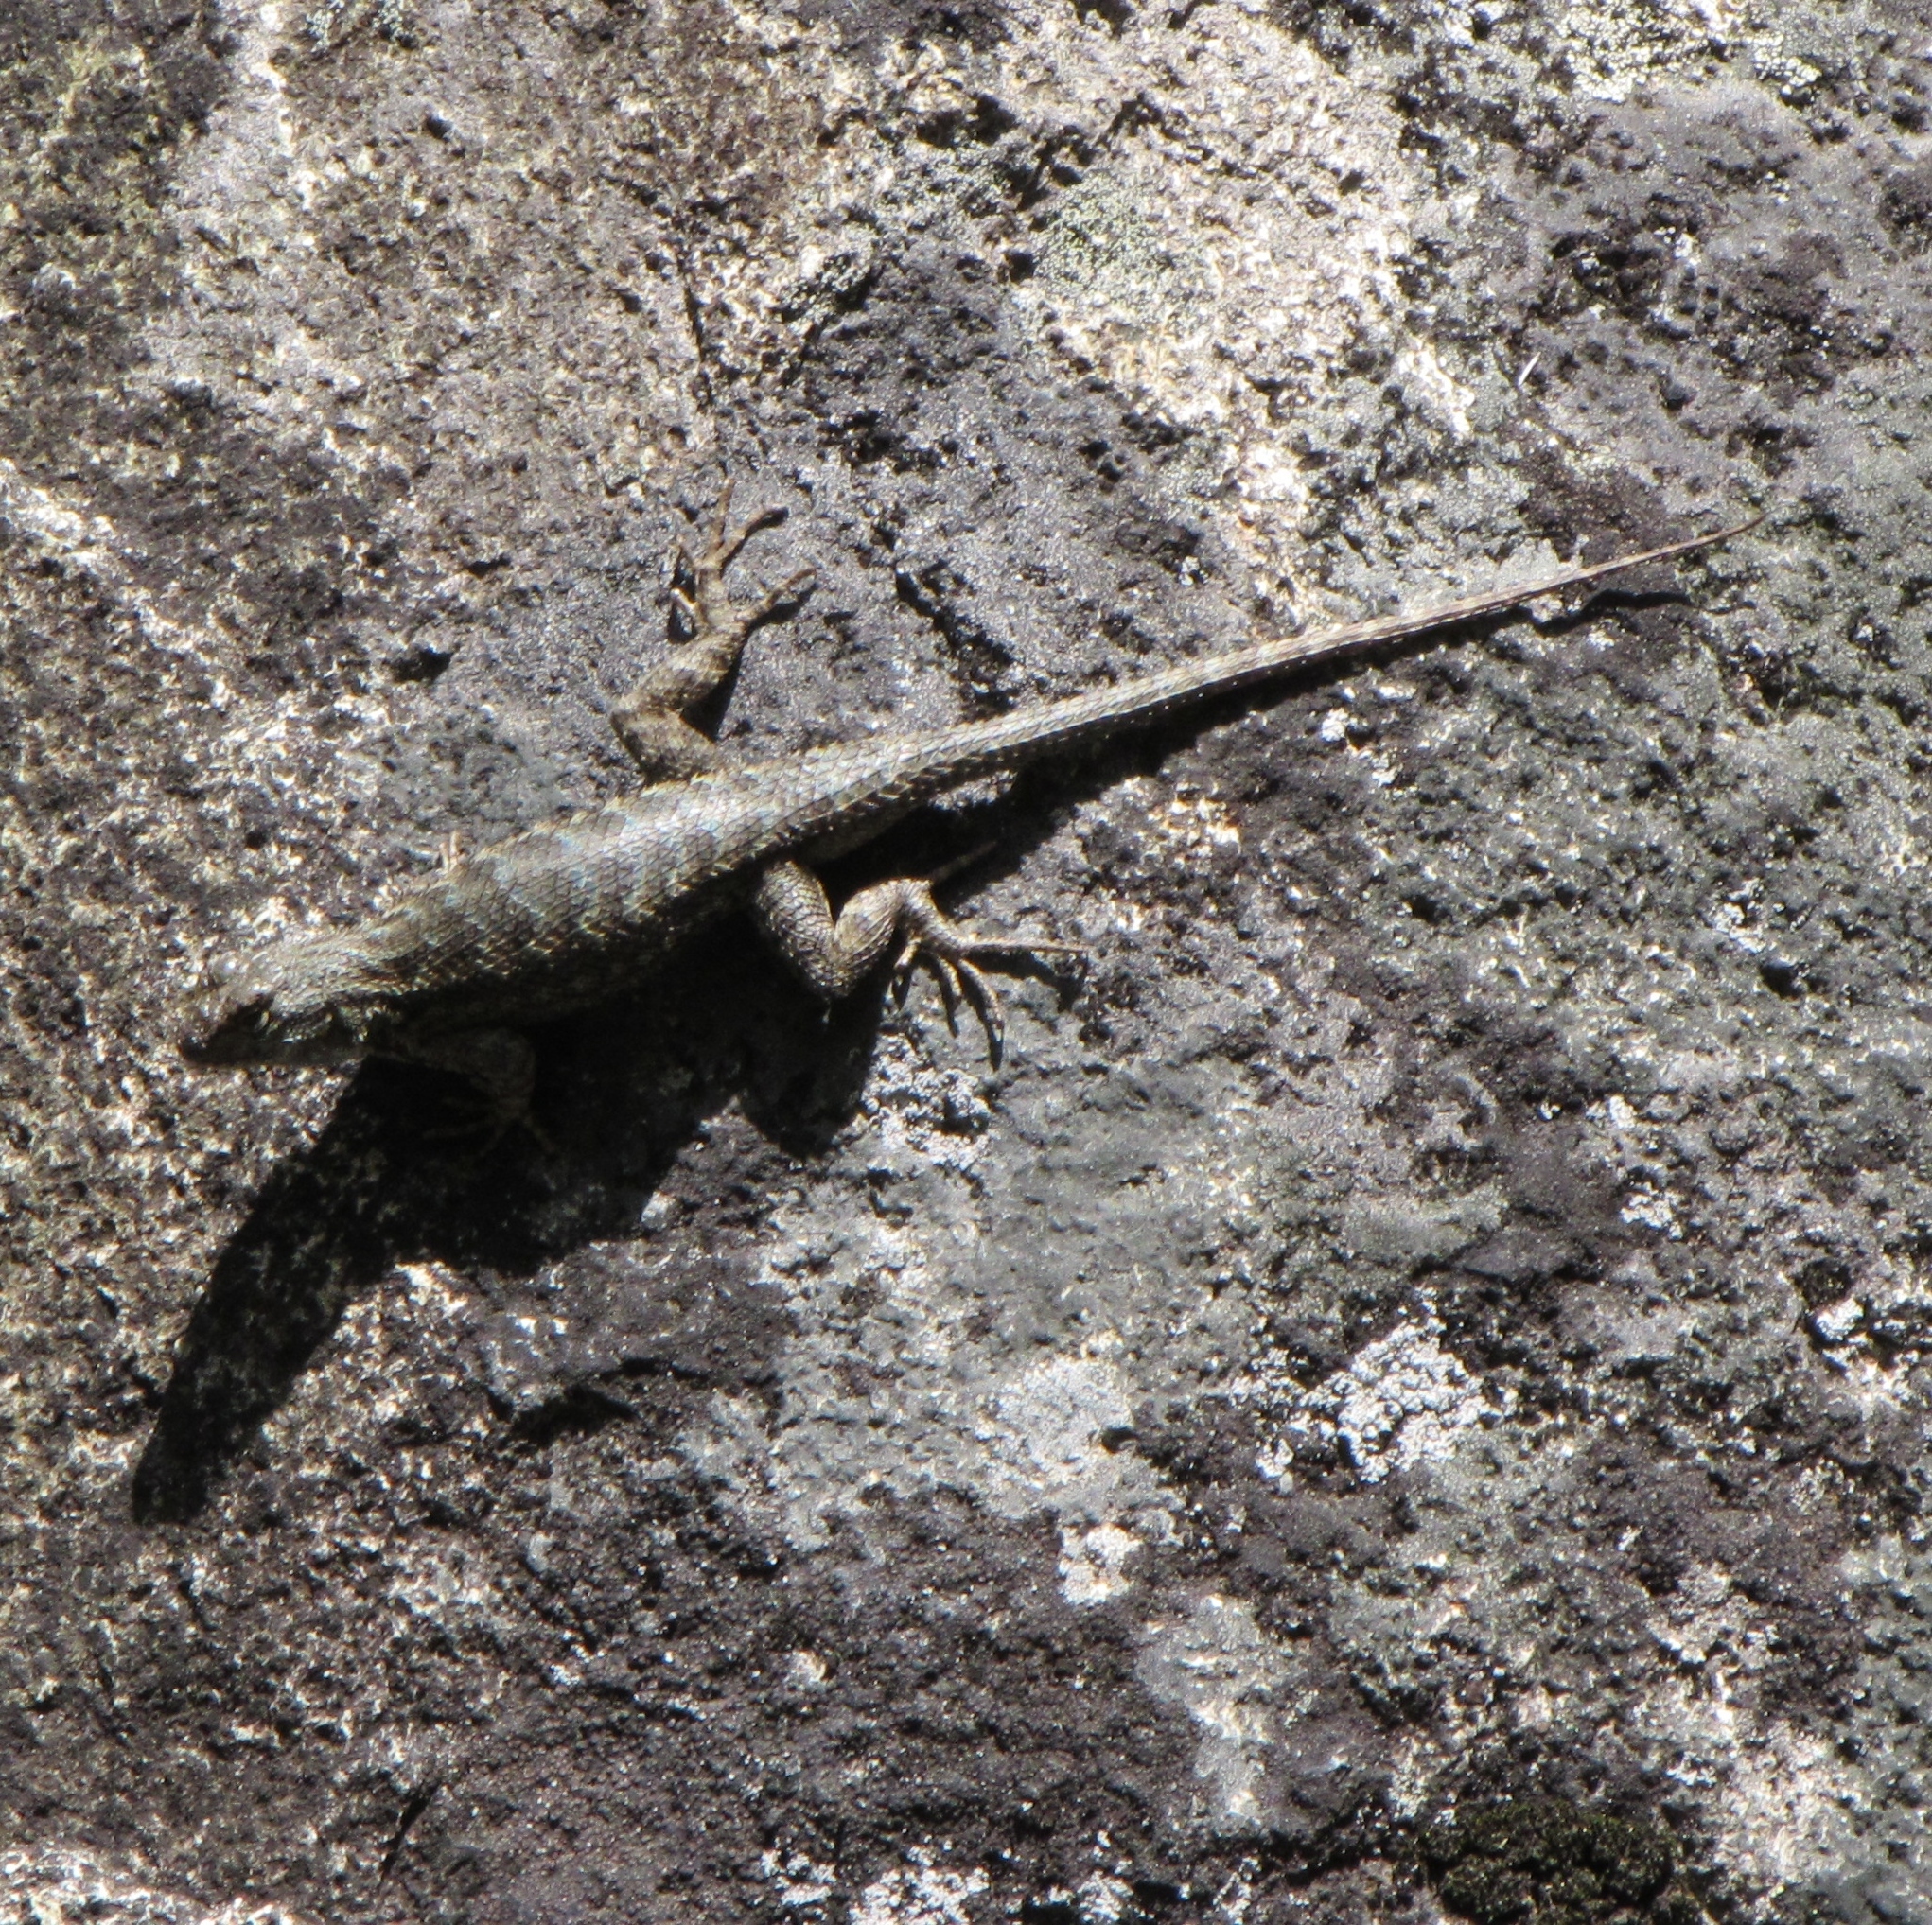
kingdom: Animalia
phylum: Chordata
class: Squamata
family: Phrynosomatidae
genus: Sceloporus
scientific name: Sceloporus occidentalis
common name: Western fence lizard
